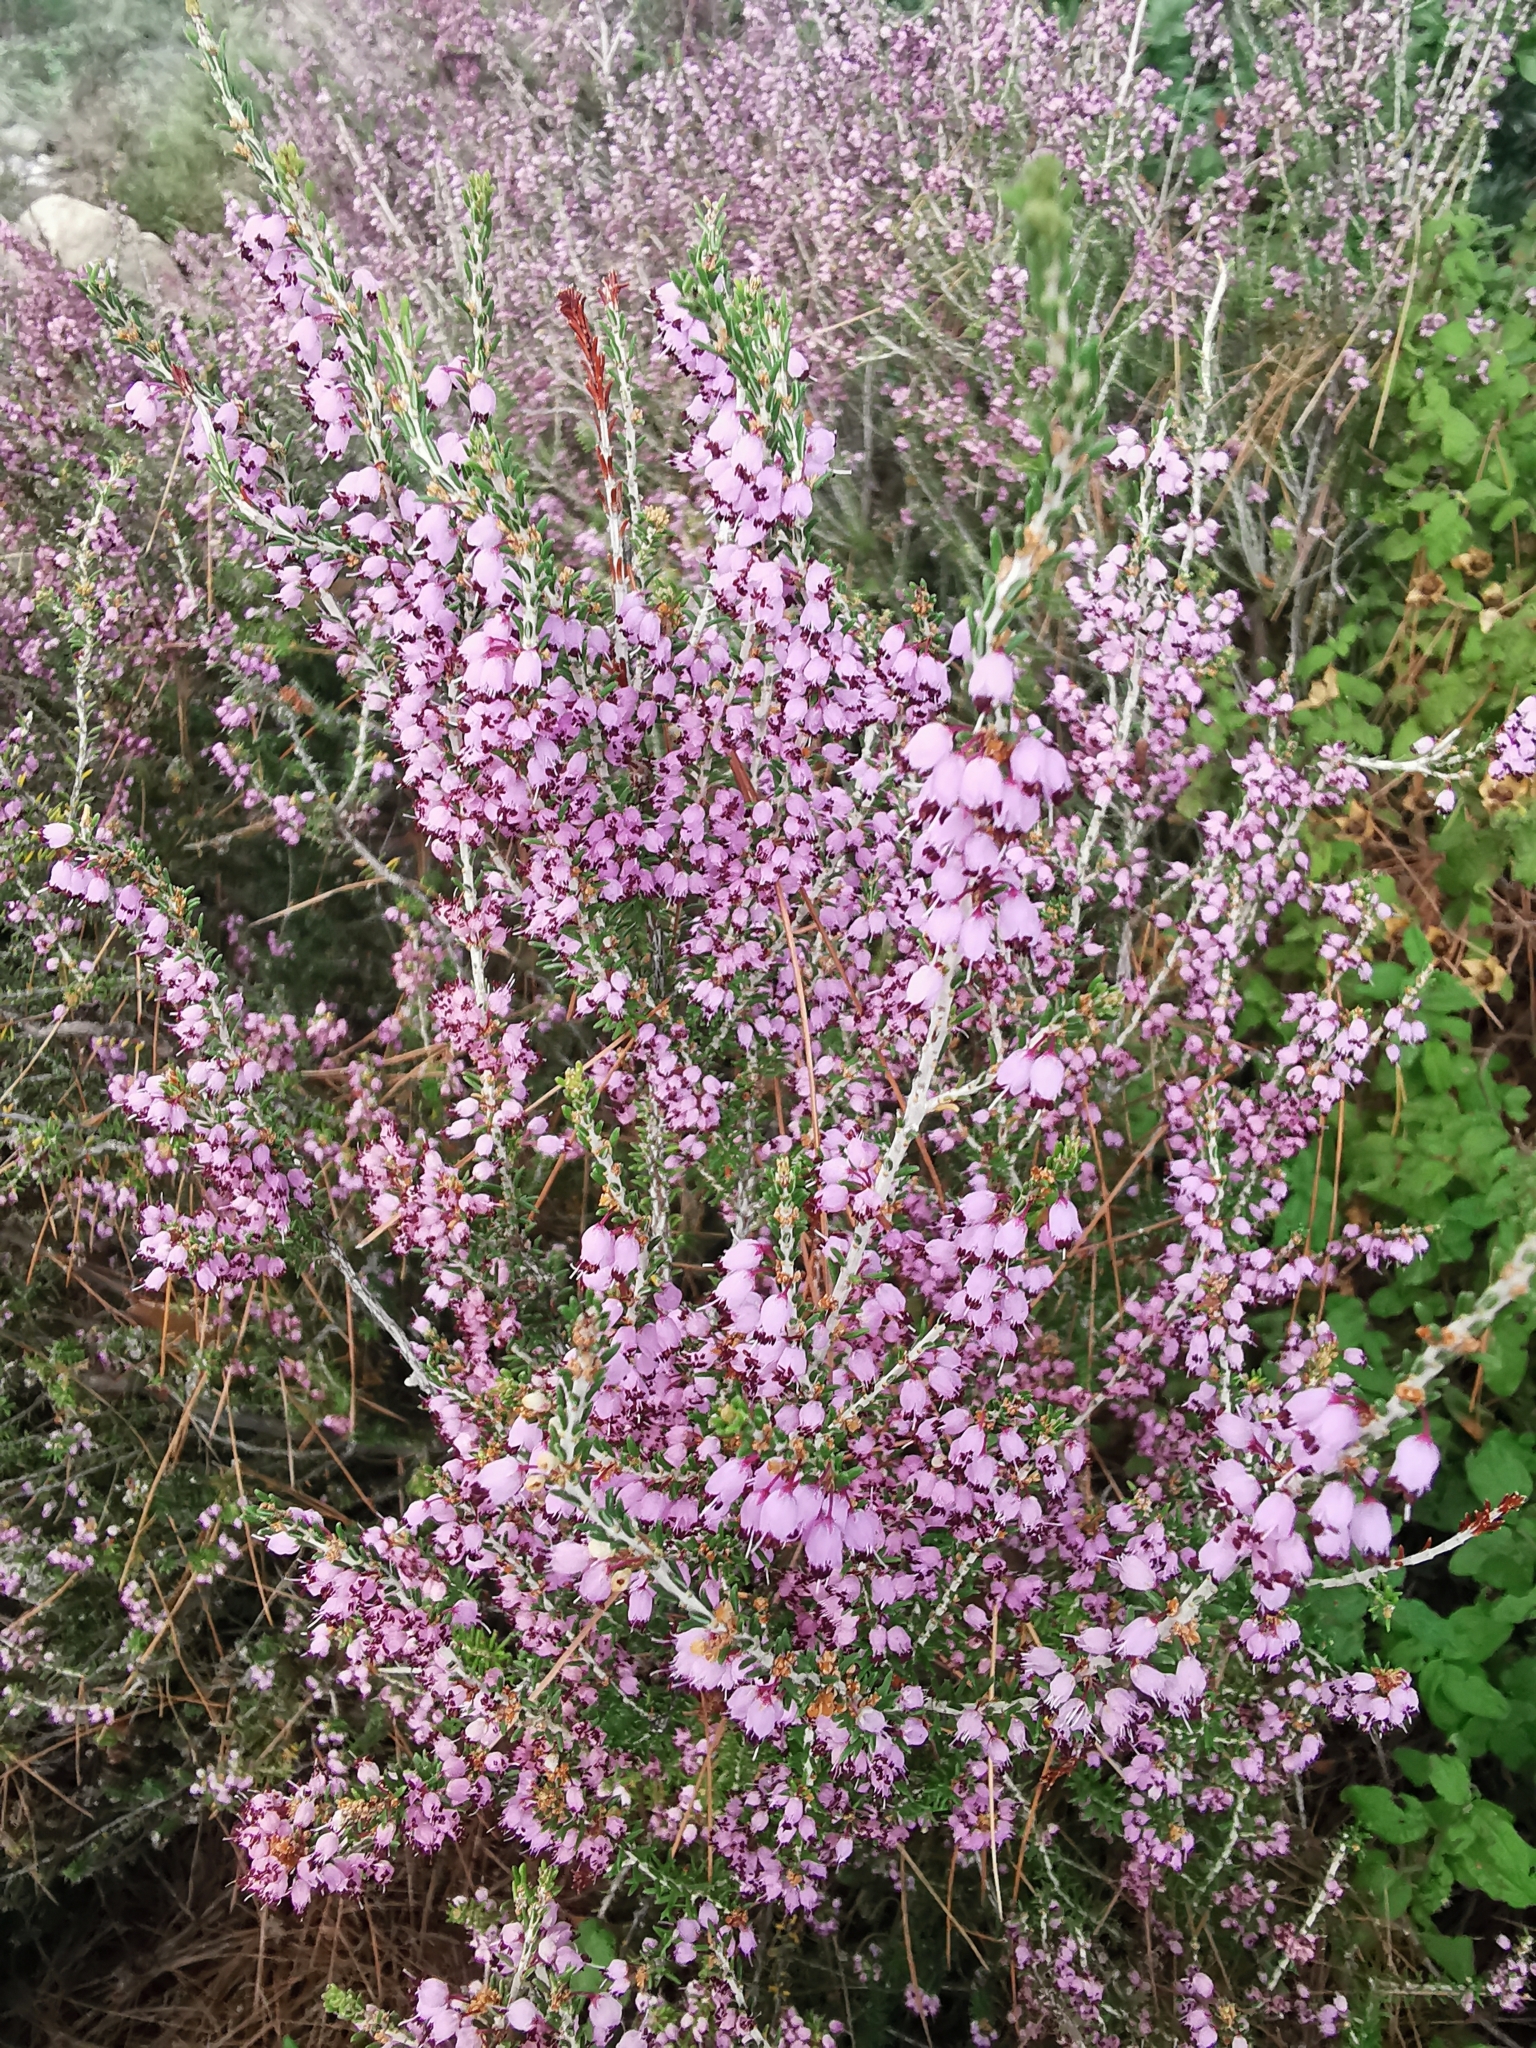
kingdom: Plantae
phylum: Tracheophyta
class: Magnoliopsida
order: Ericales
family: Ericaceae
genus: Erica
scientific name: Erica manipuliflora
